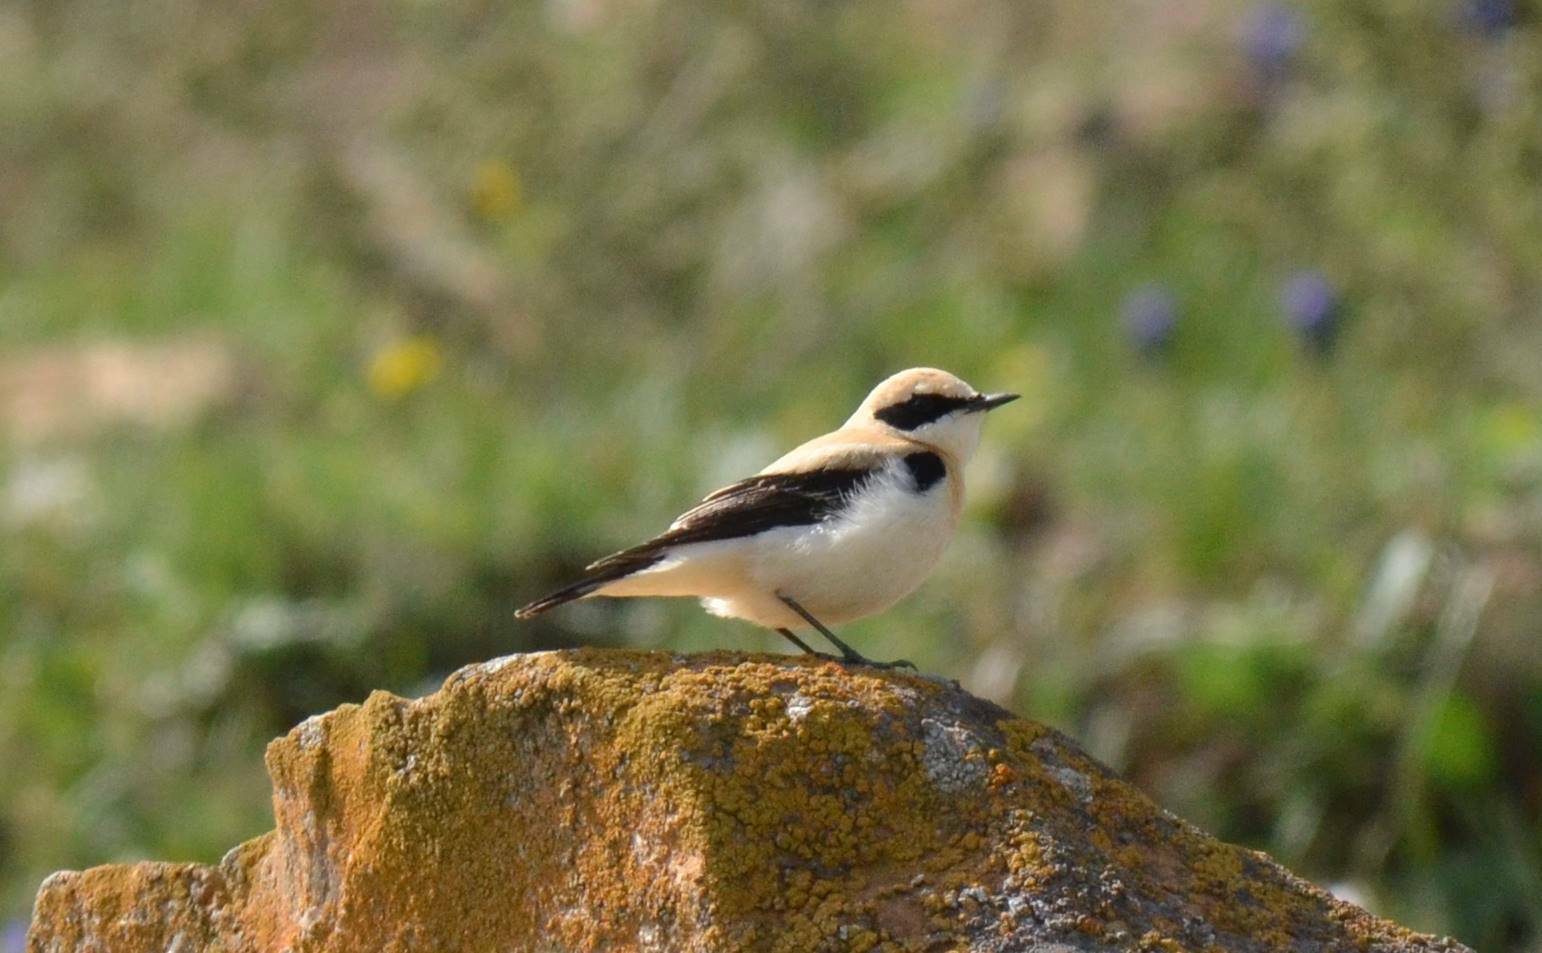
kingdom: Animalia
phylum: Chordata
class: Aves
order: Passeriformes
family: Muscicapidae
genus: Oenanthe
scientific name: Oenanthe hispanica
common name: Black-eared wheatear
